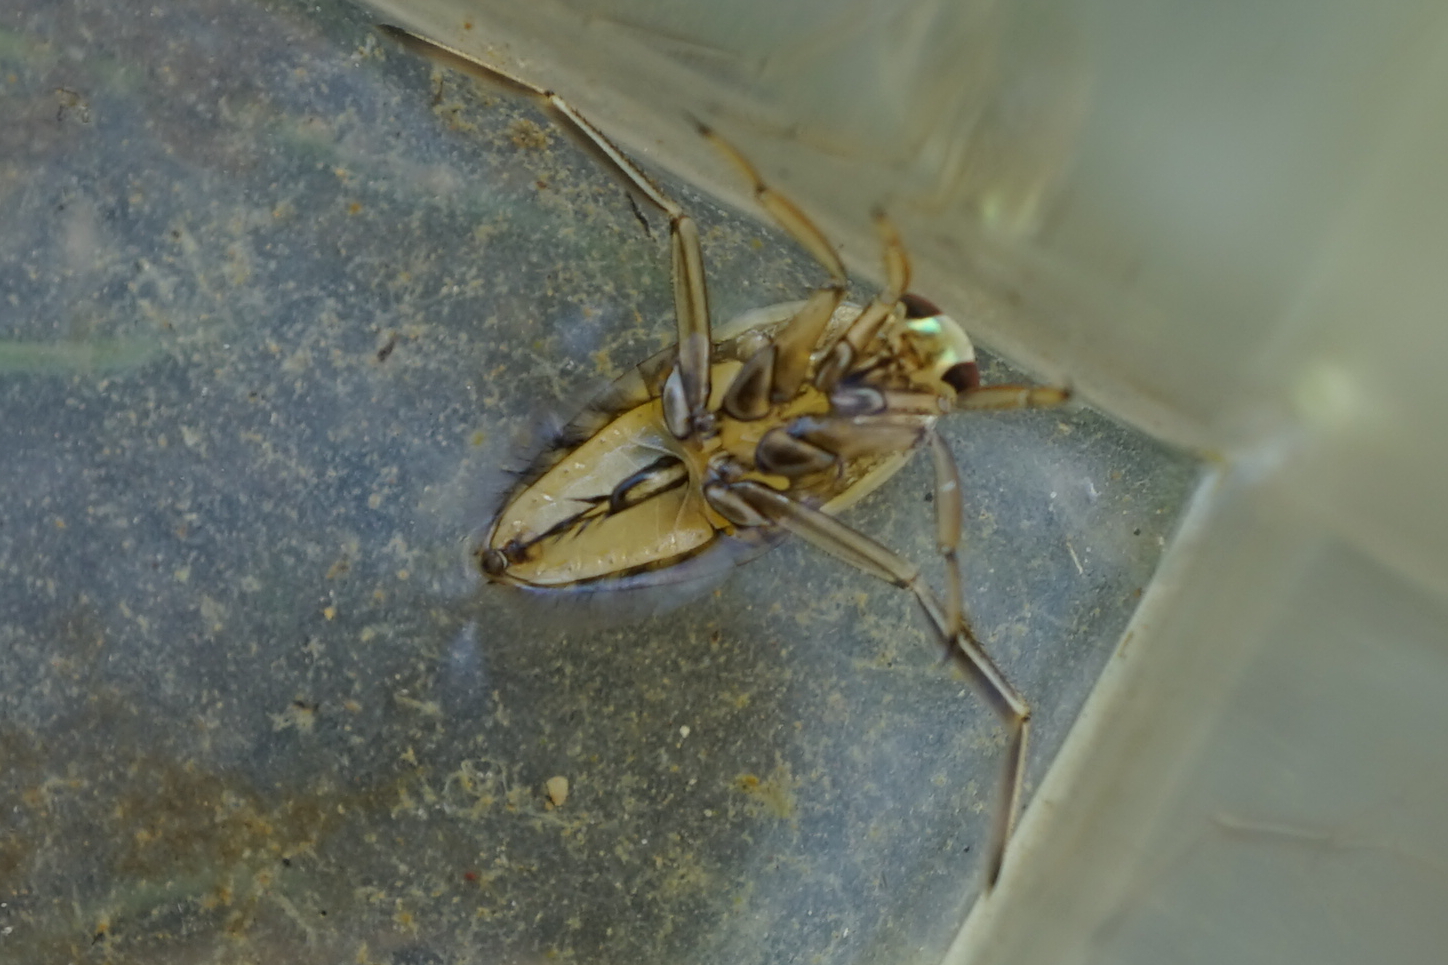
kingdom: Animalia
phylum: Arthropoda
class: Insecta
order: Hemiptera
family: Notonectidae
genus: Notonecta
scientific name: Notonecta triguttata
